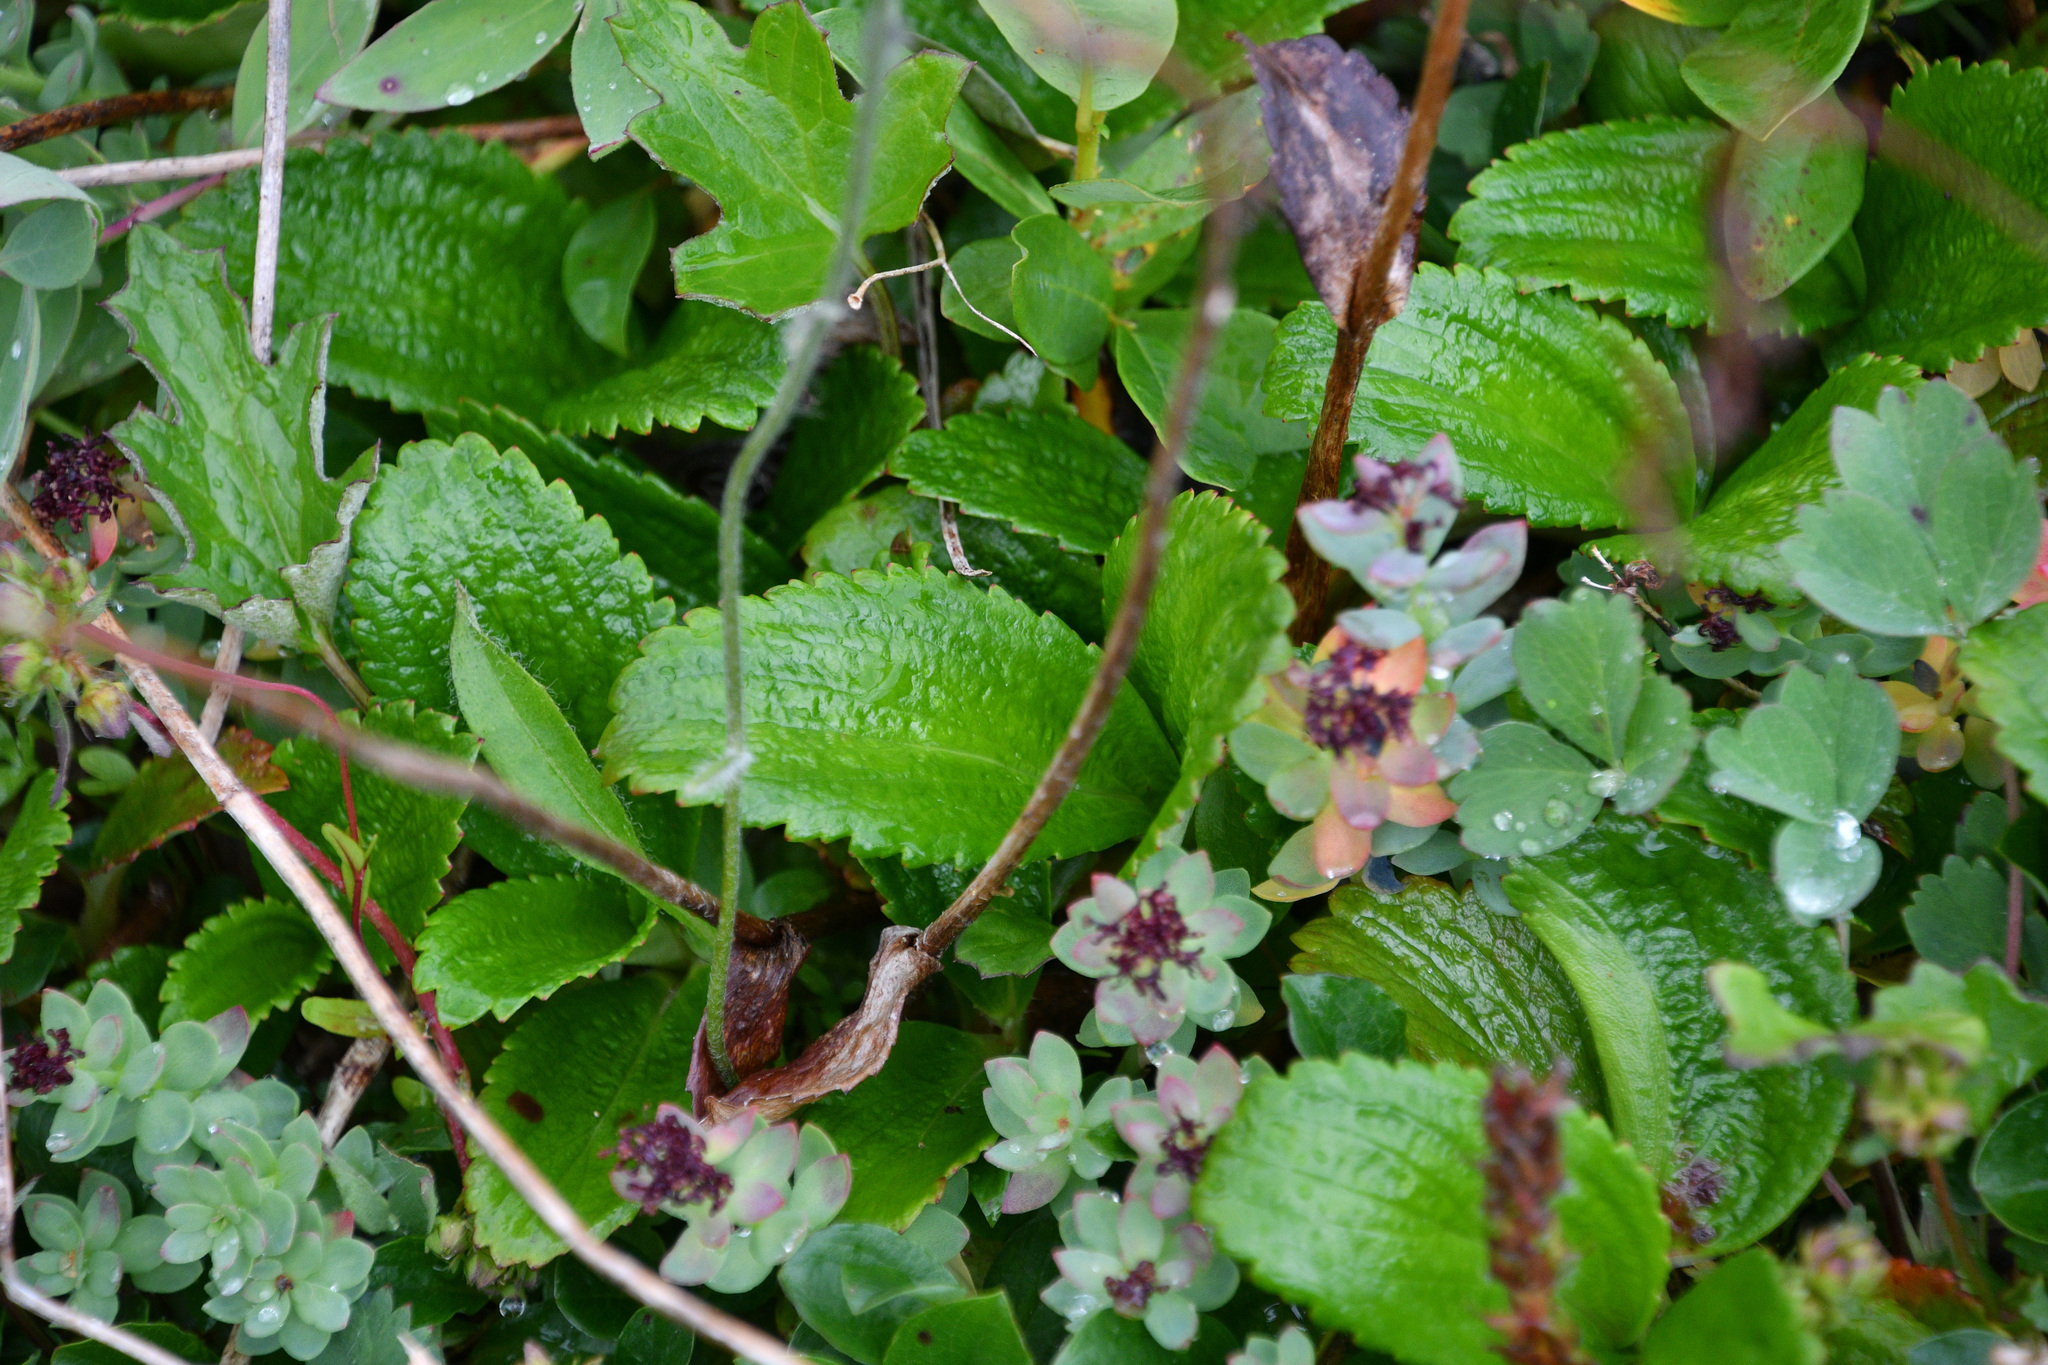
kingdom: Plantae
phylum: Tracheophyta
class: Magnoliopsida
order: Saxifragales
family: Saxifragaceae
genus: Leptarrhena
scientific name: Leptarrhena pyrolifolia
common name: Leatherleaf-saxifrage
